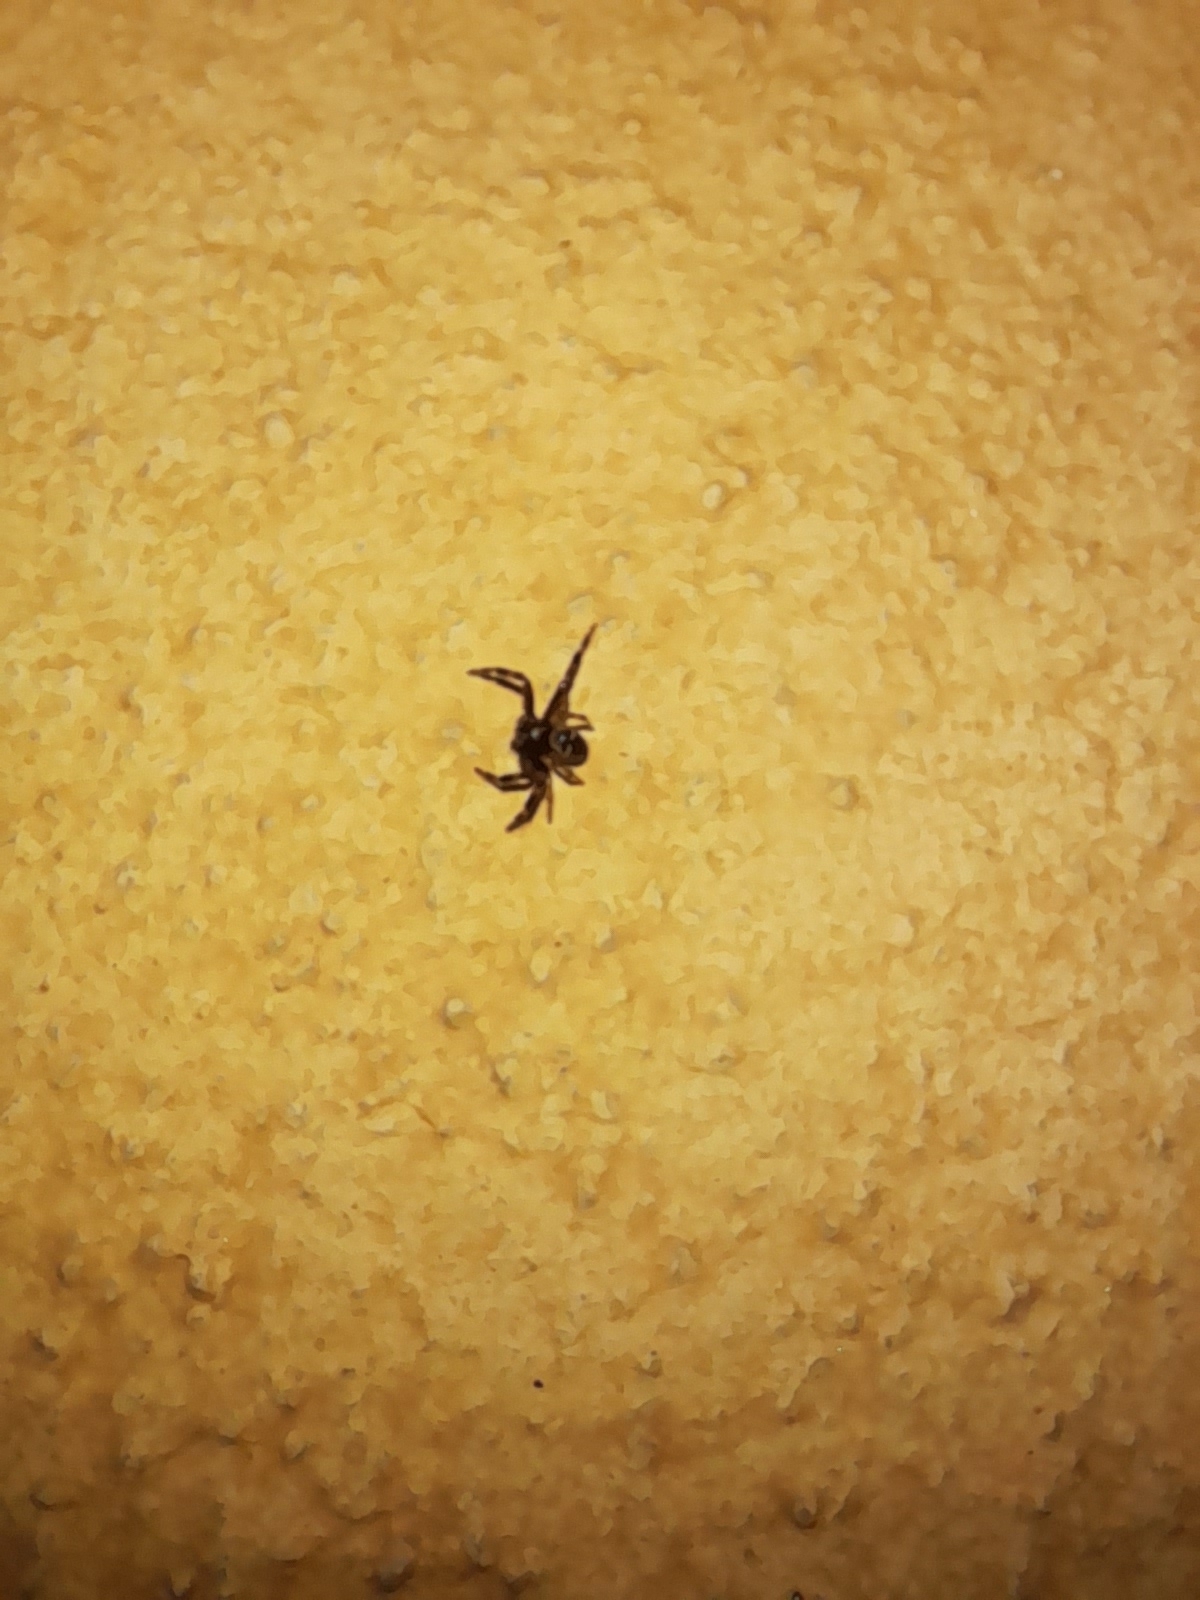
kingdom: Animalia
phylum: Arthropoda
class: Arachnida
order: Araneae
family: Thomisidae
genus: Synema
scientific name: Synema globosum
